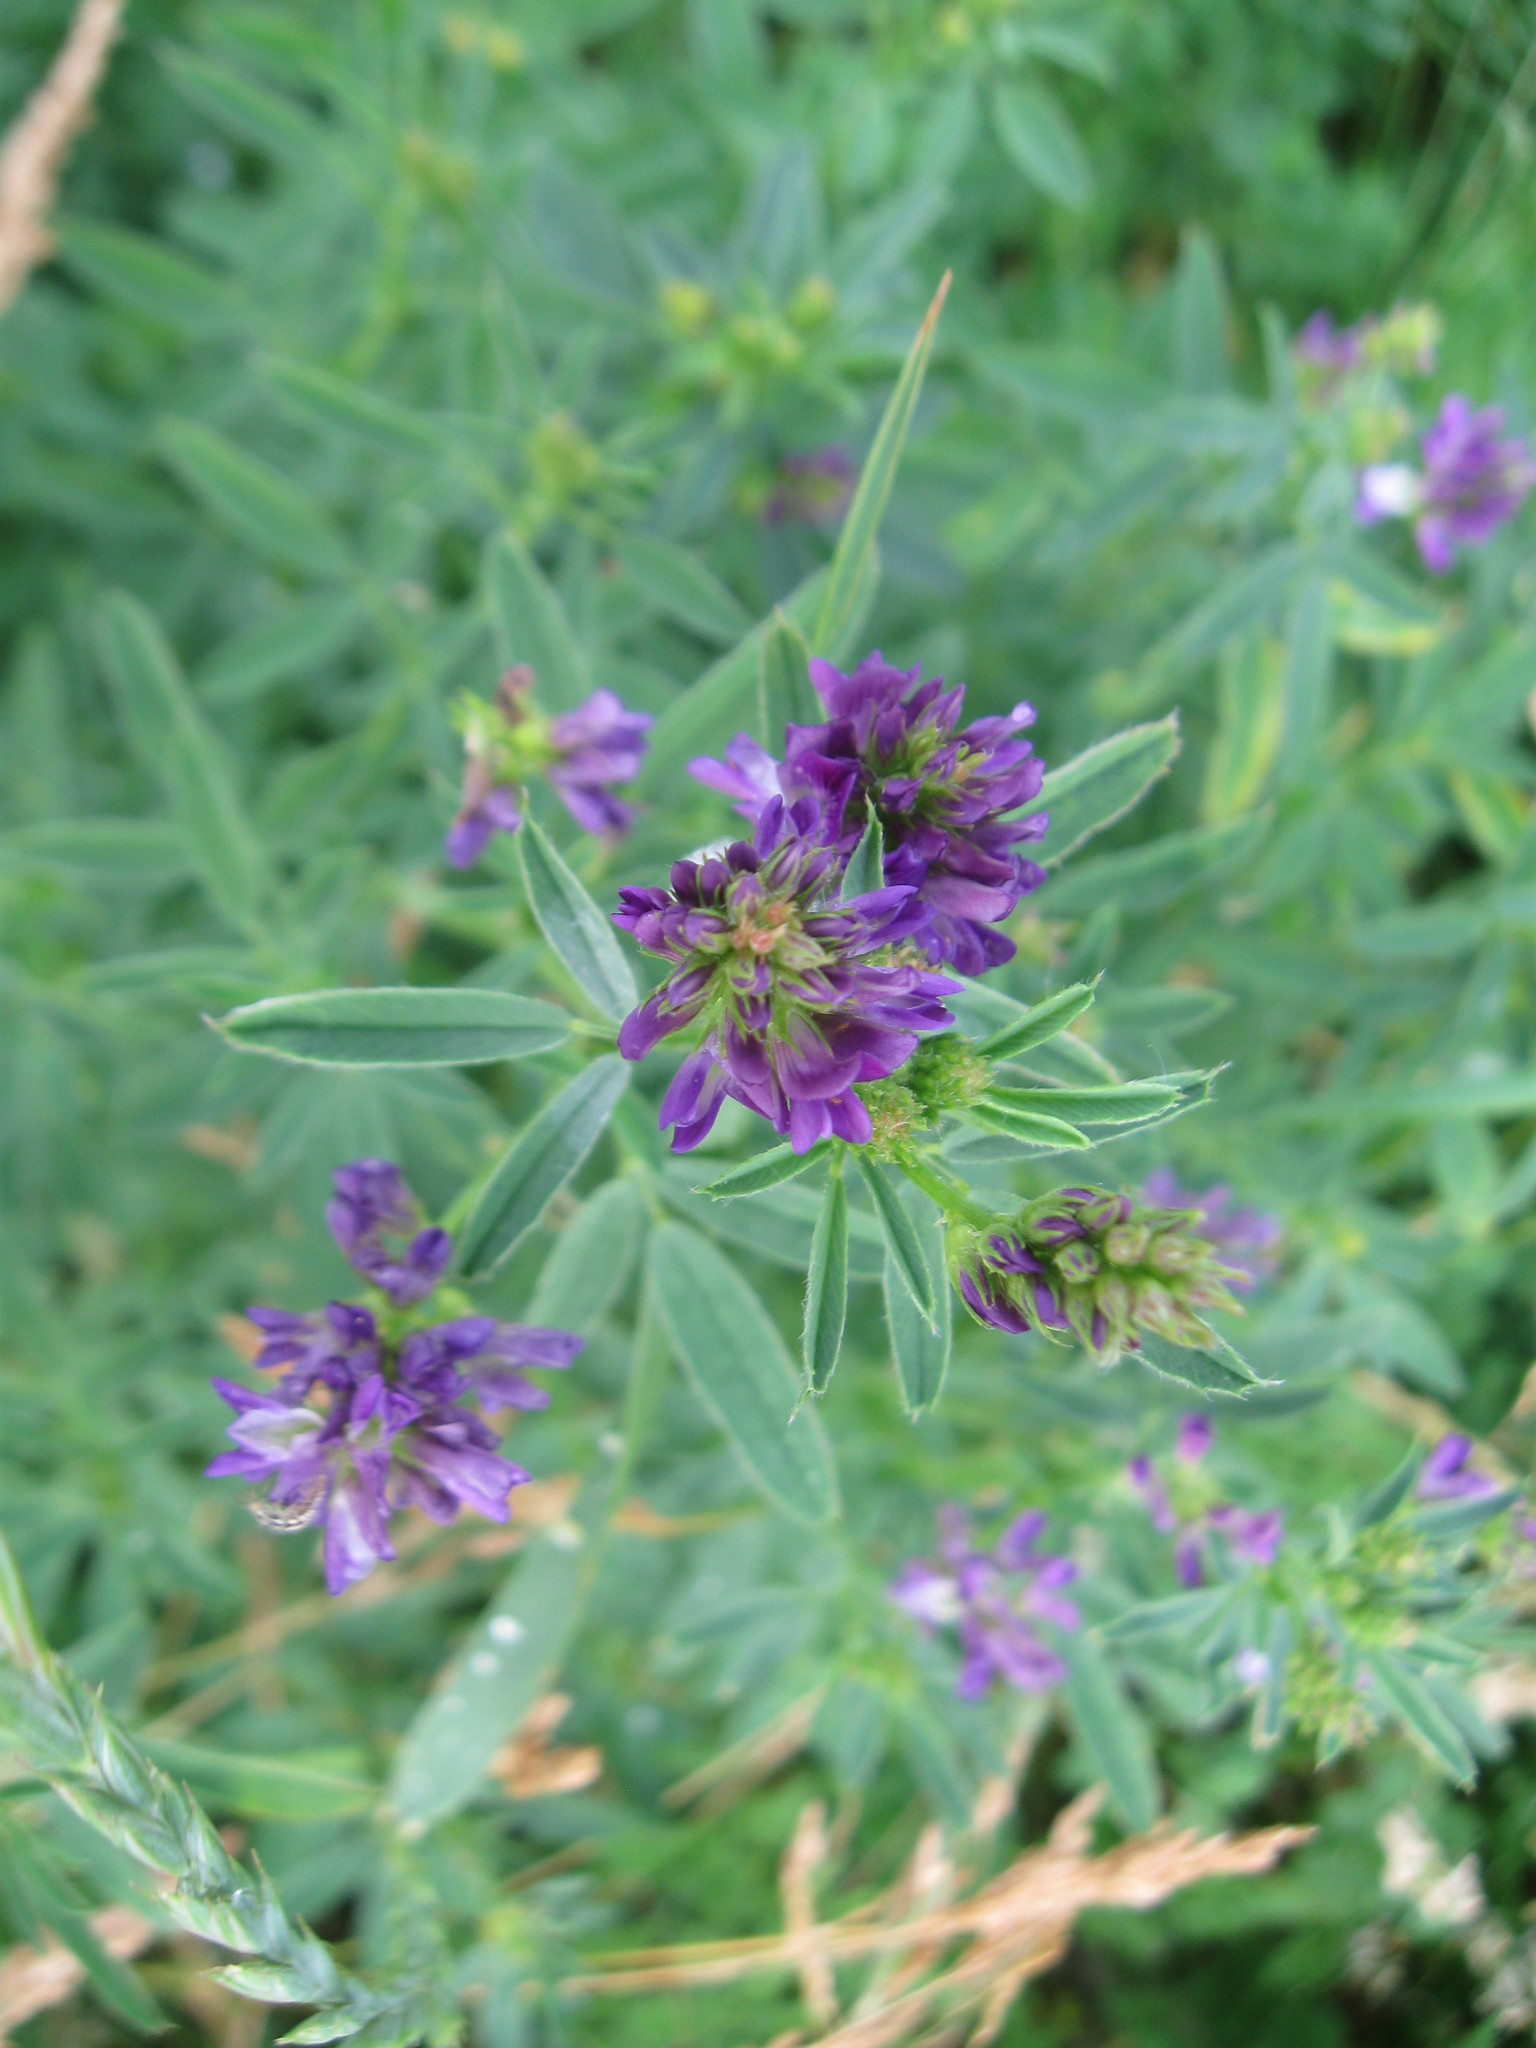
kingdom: Plantae
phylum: Tracheophyta
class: Magnoliopsida
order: Fabales
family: Fabaceae
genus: Medicago
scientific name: Medicago sativa
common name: Alfalfa
